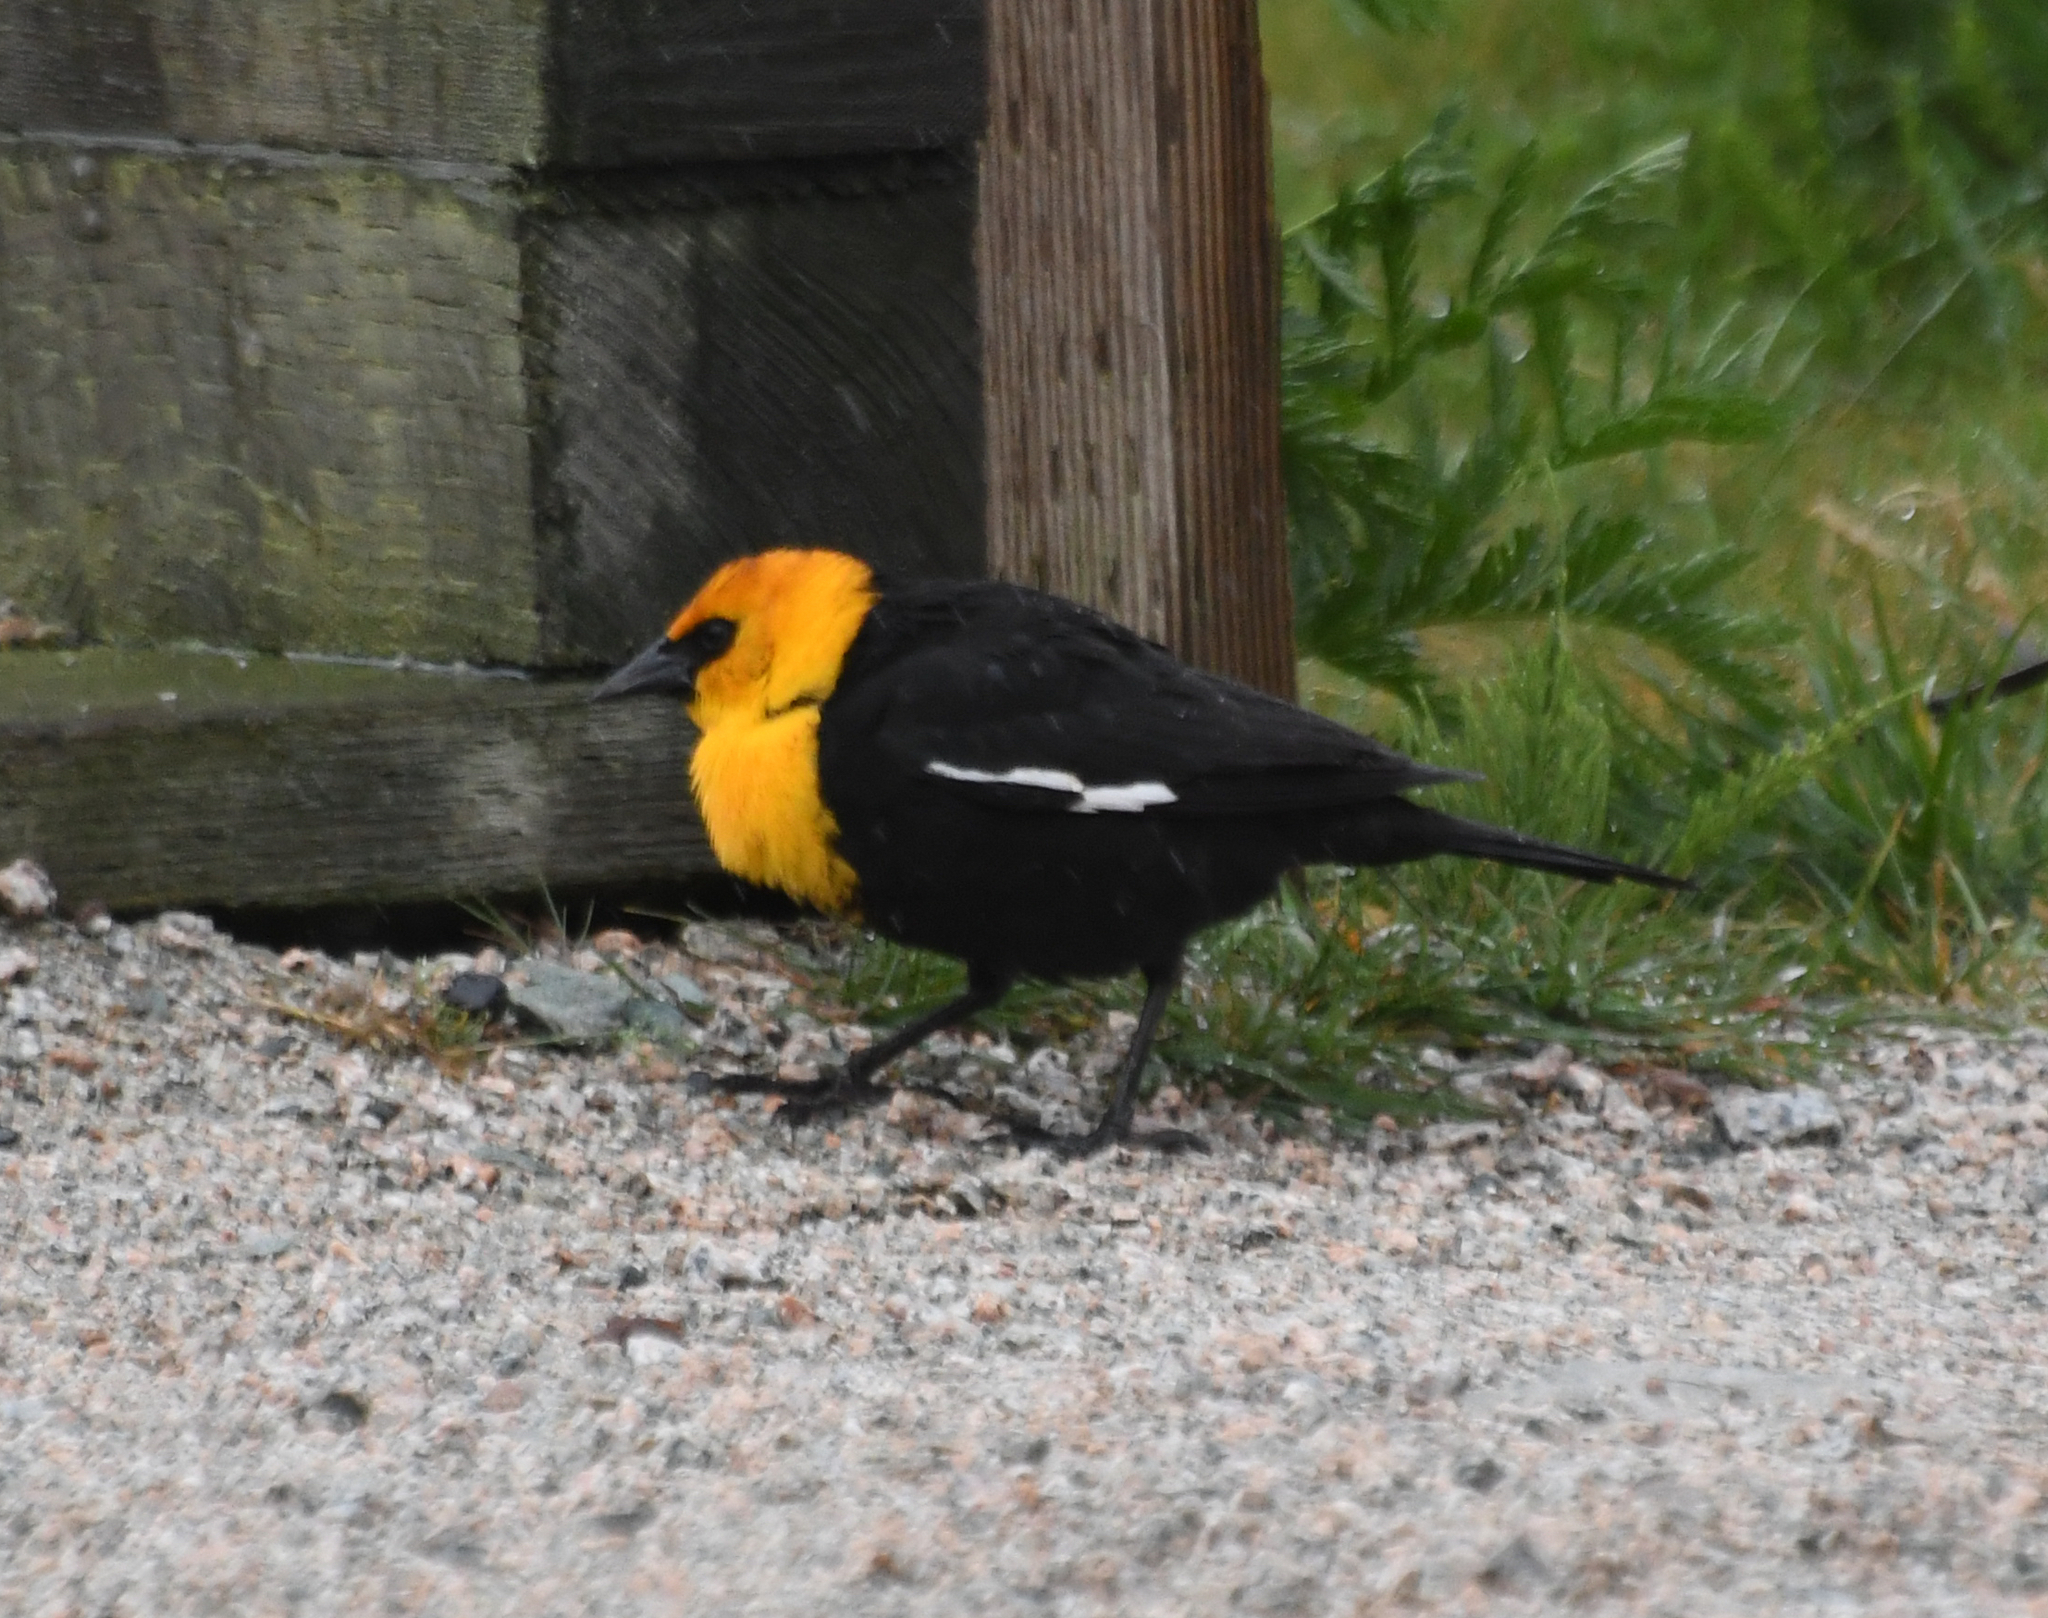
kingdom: Animalia
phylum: Chordata
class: Aves
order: Passeriformes
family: Icteridae
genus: Xanthocephalus
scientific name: Xanthocephalus xanthocephalus
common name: Yellow-headed blackbird
